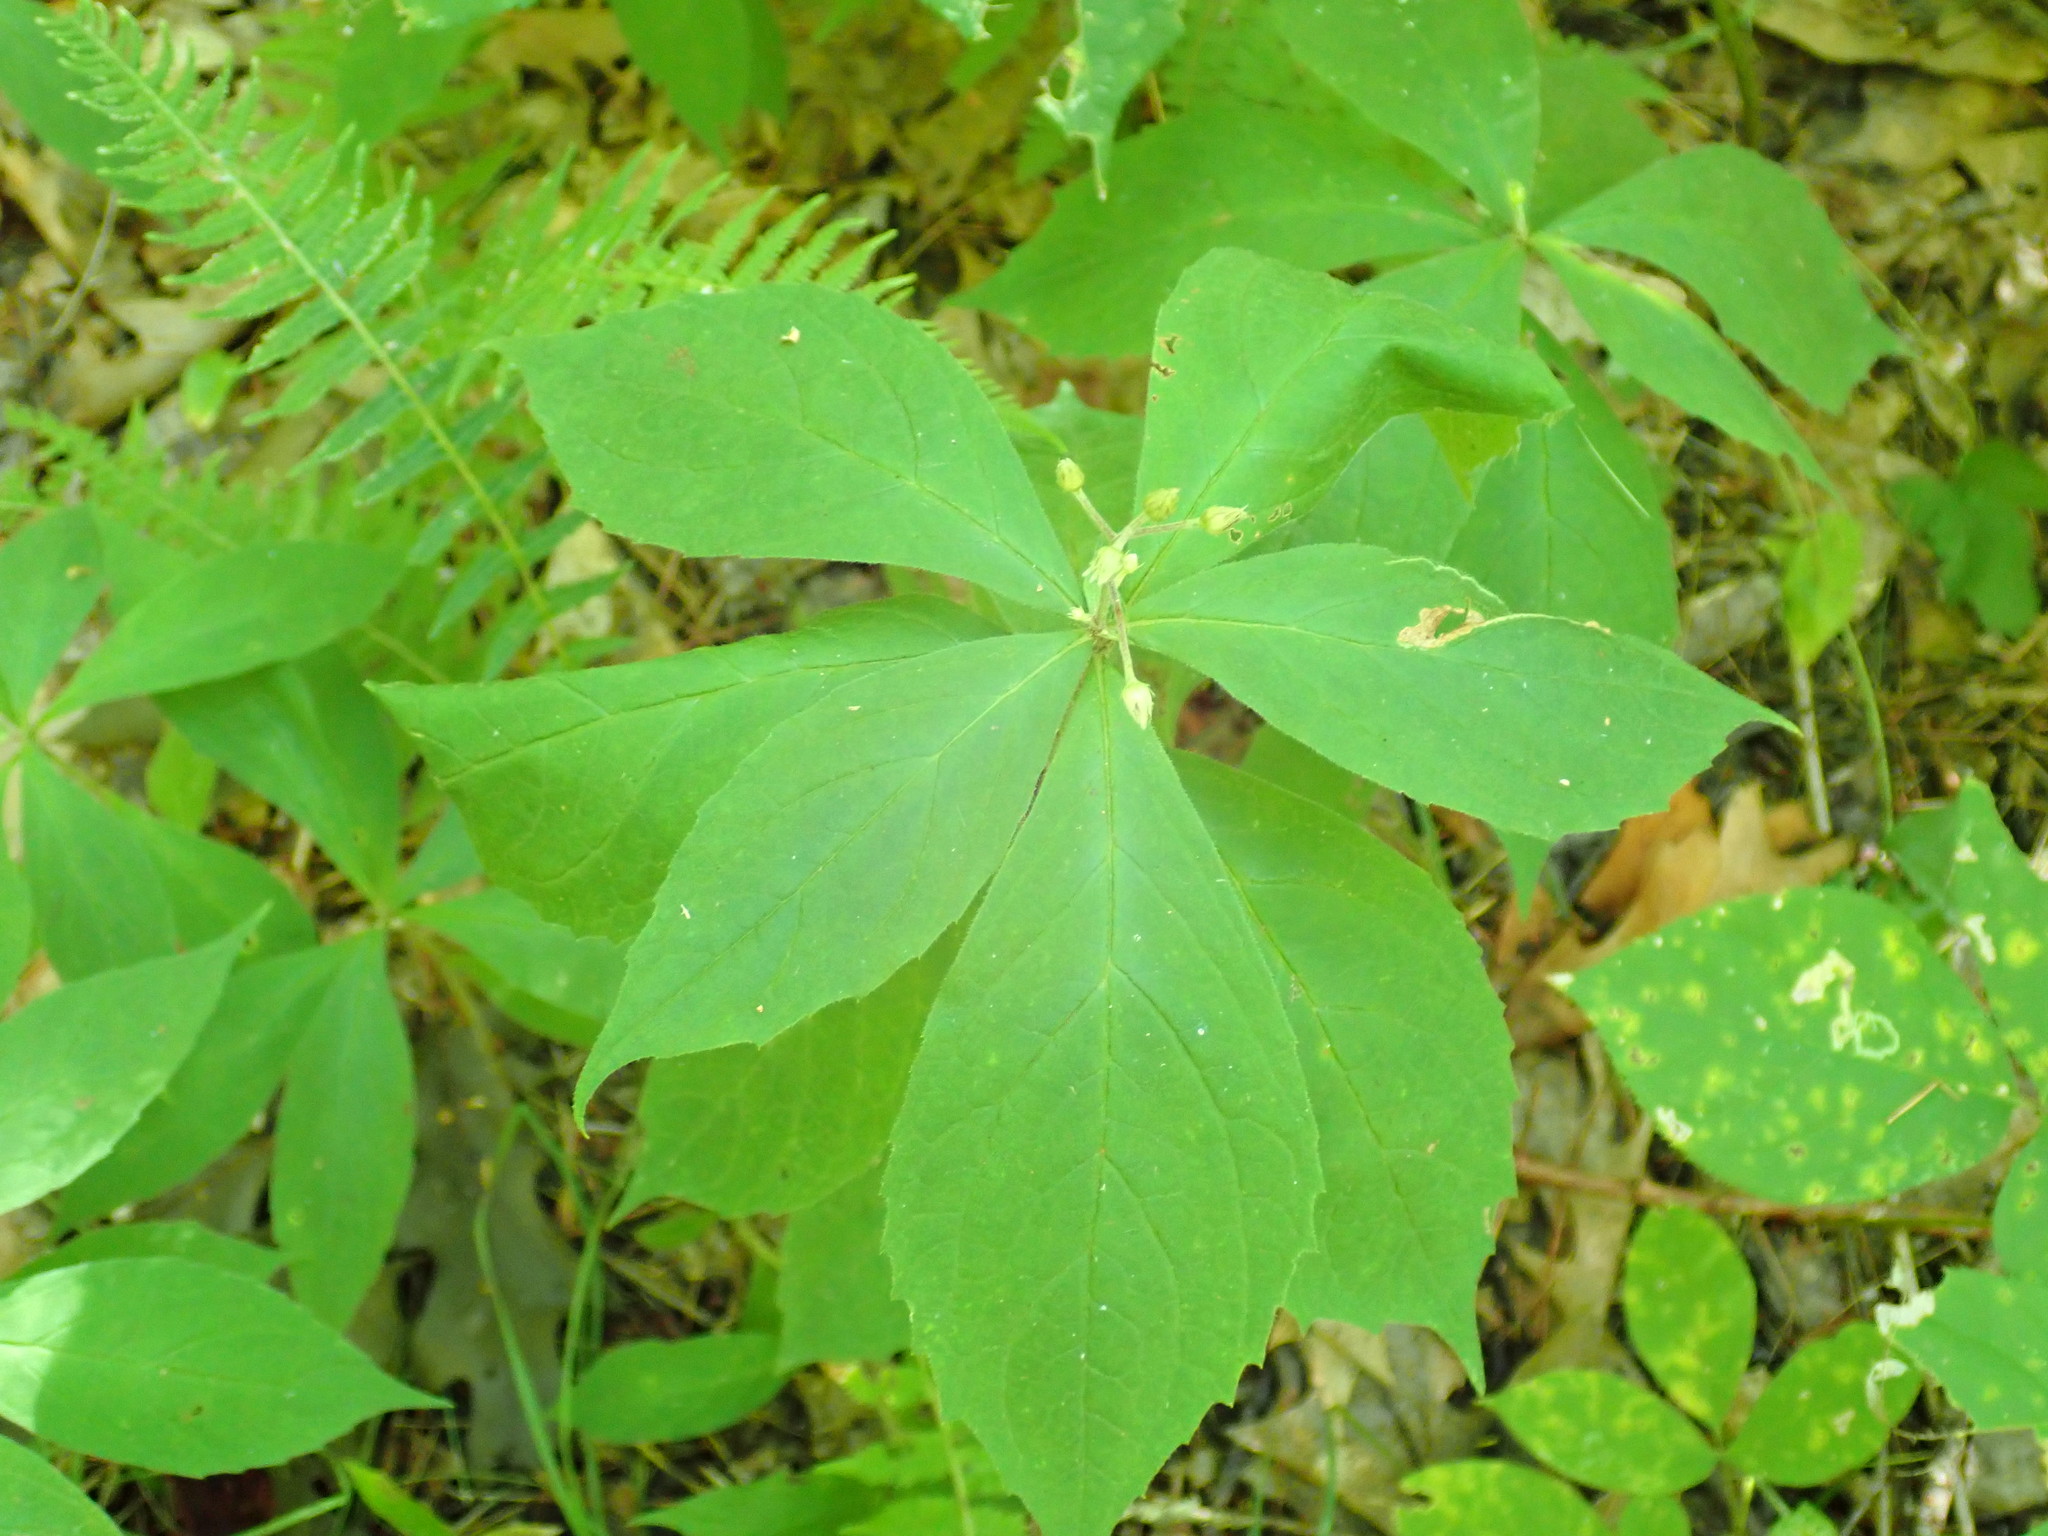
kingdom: Plantae
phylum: Tracheophyta
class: Magnoliopsida
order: Asterales
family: Asteraceae
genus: Oclemena
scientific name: Oclemena acuminata
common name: Mountain aster
